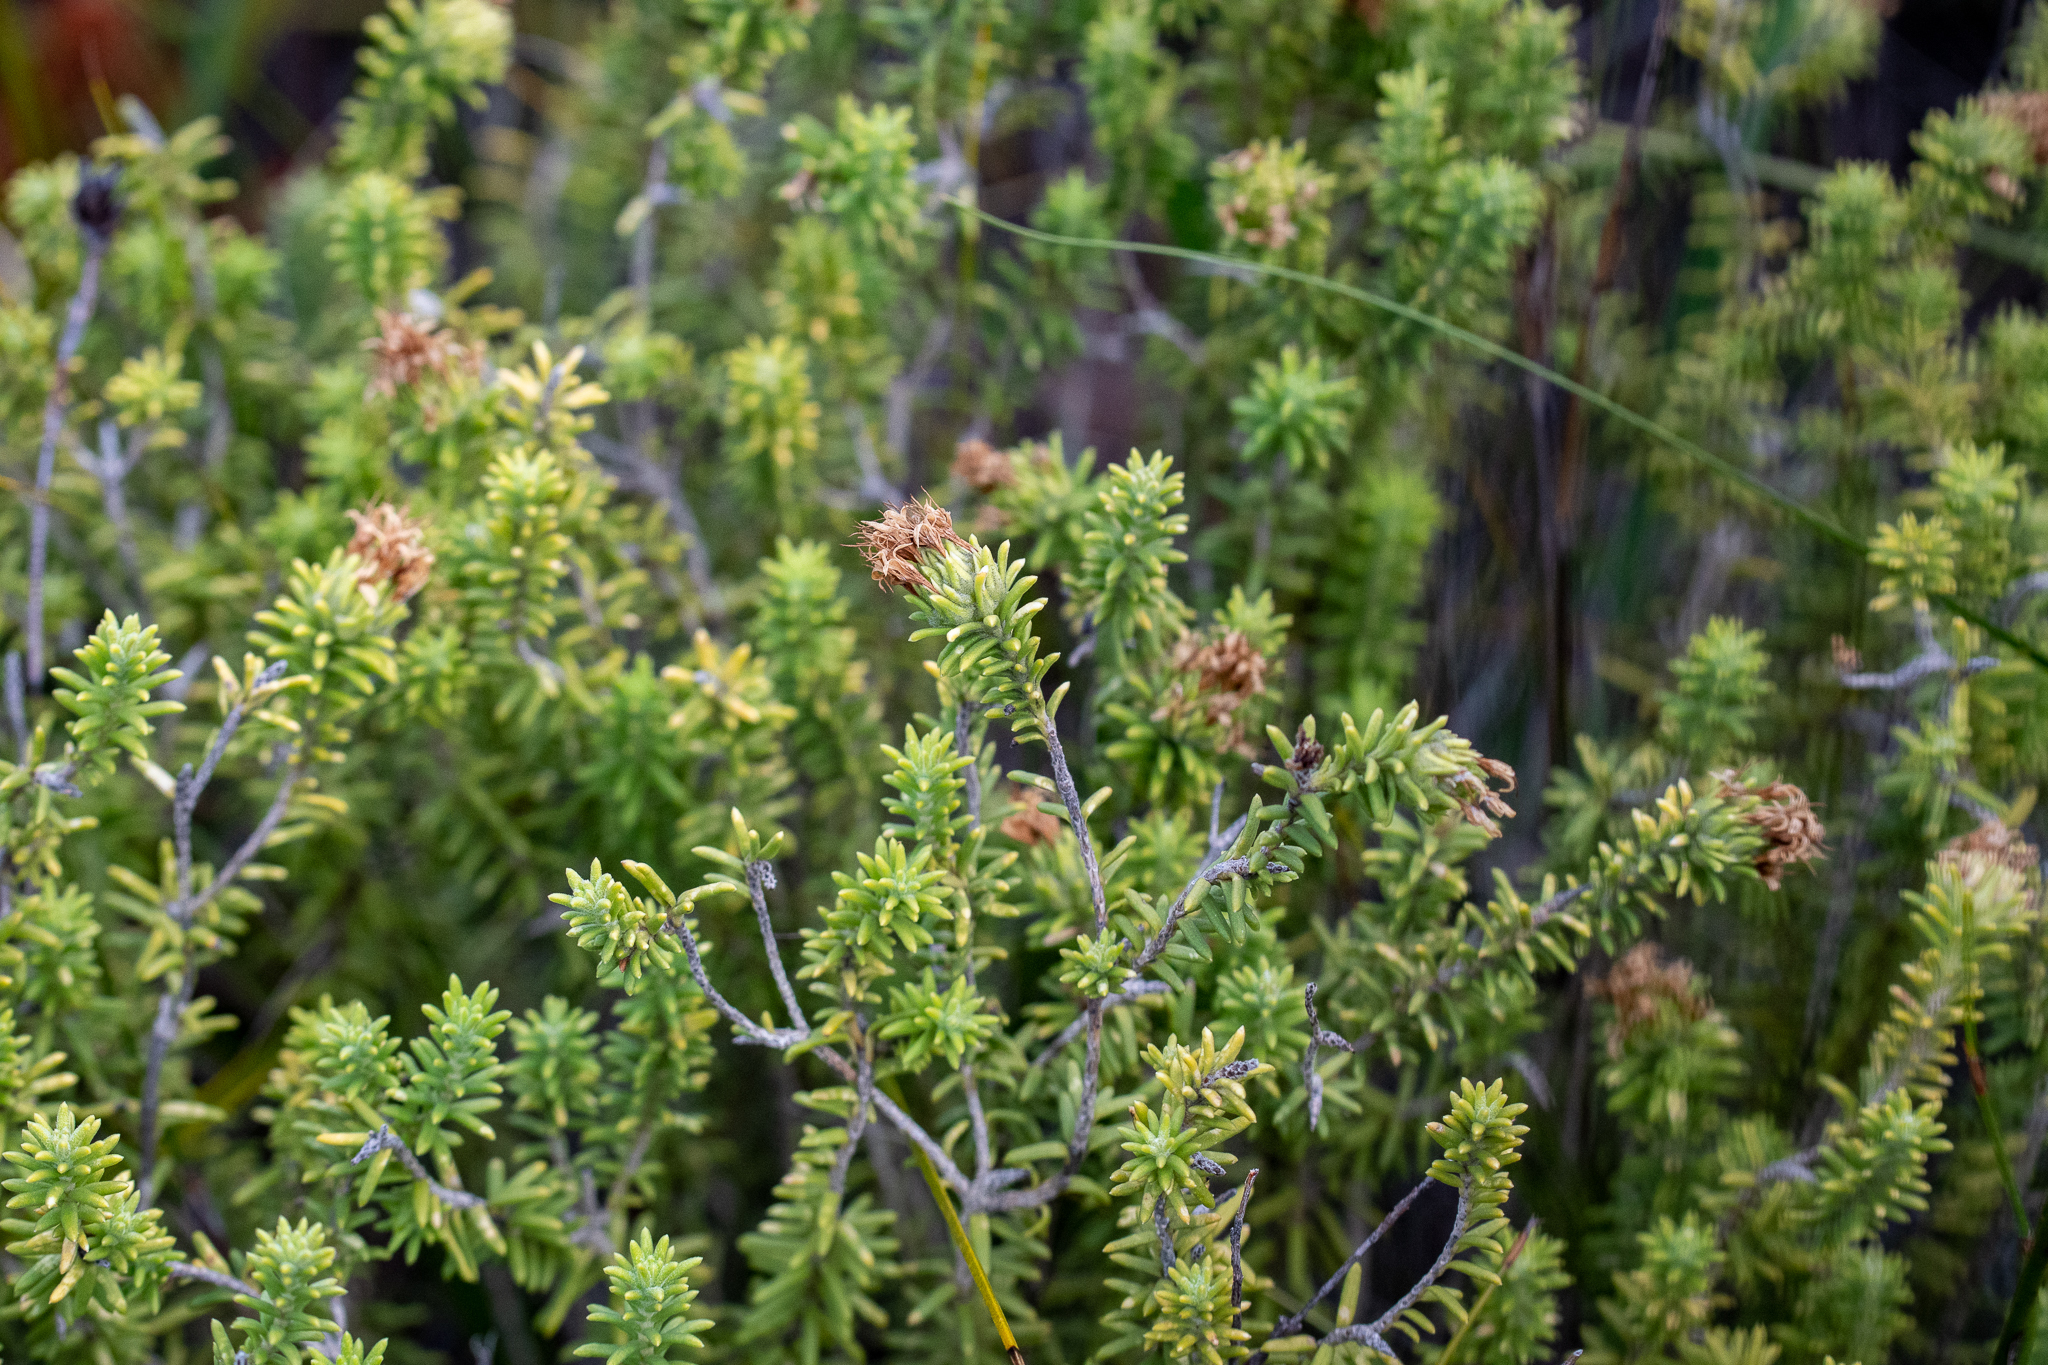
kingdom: Plantae
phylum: Tracheophyta
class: Magnoliopsida
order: Lamiales
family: Stilbaceae
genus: Campylostachys
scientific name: Campylostachys cernua
